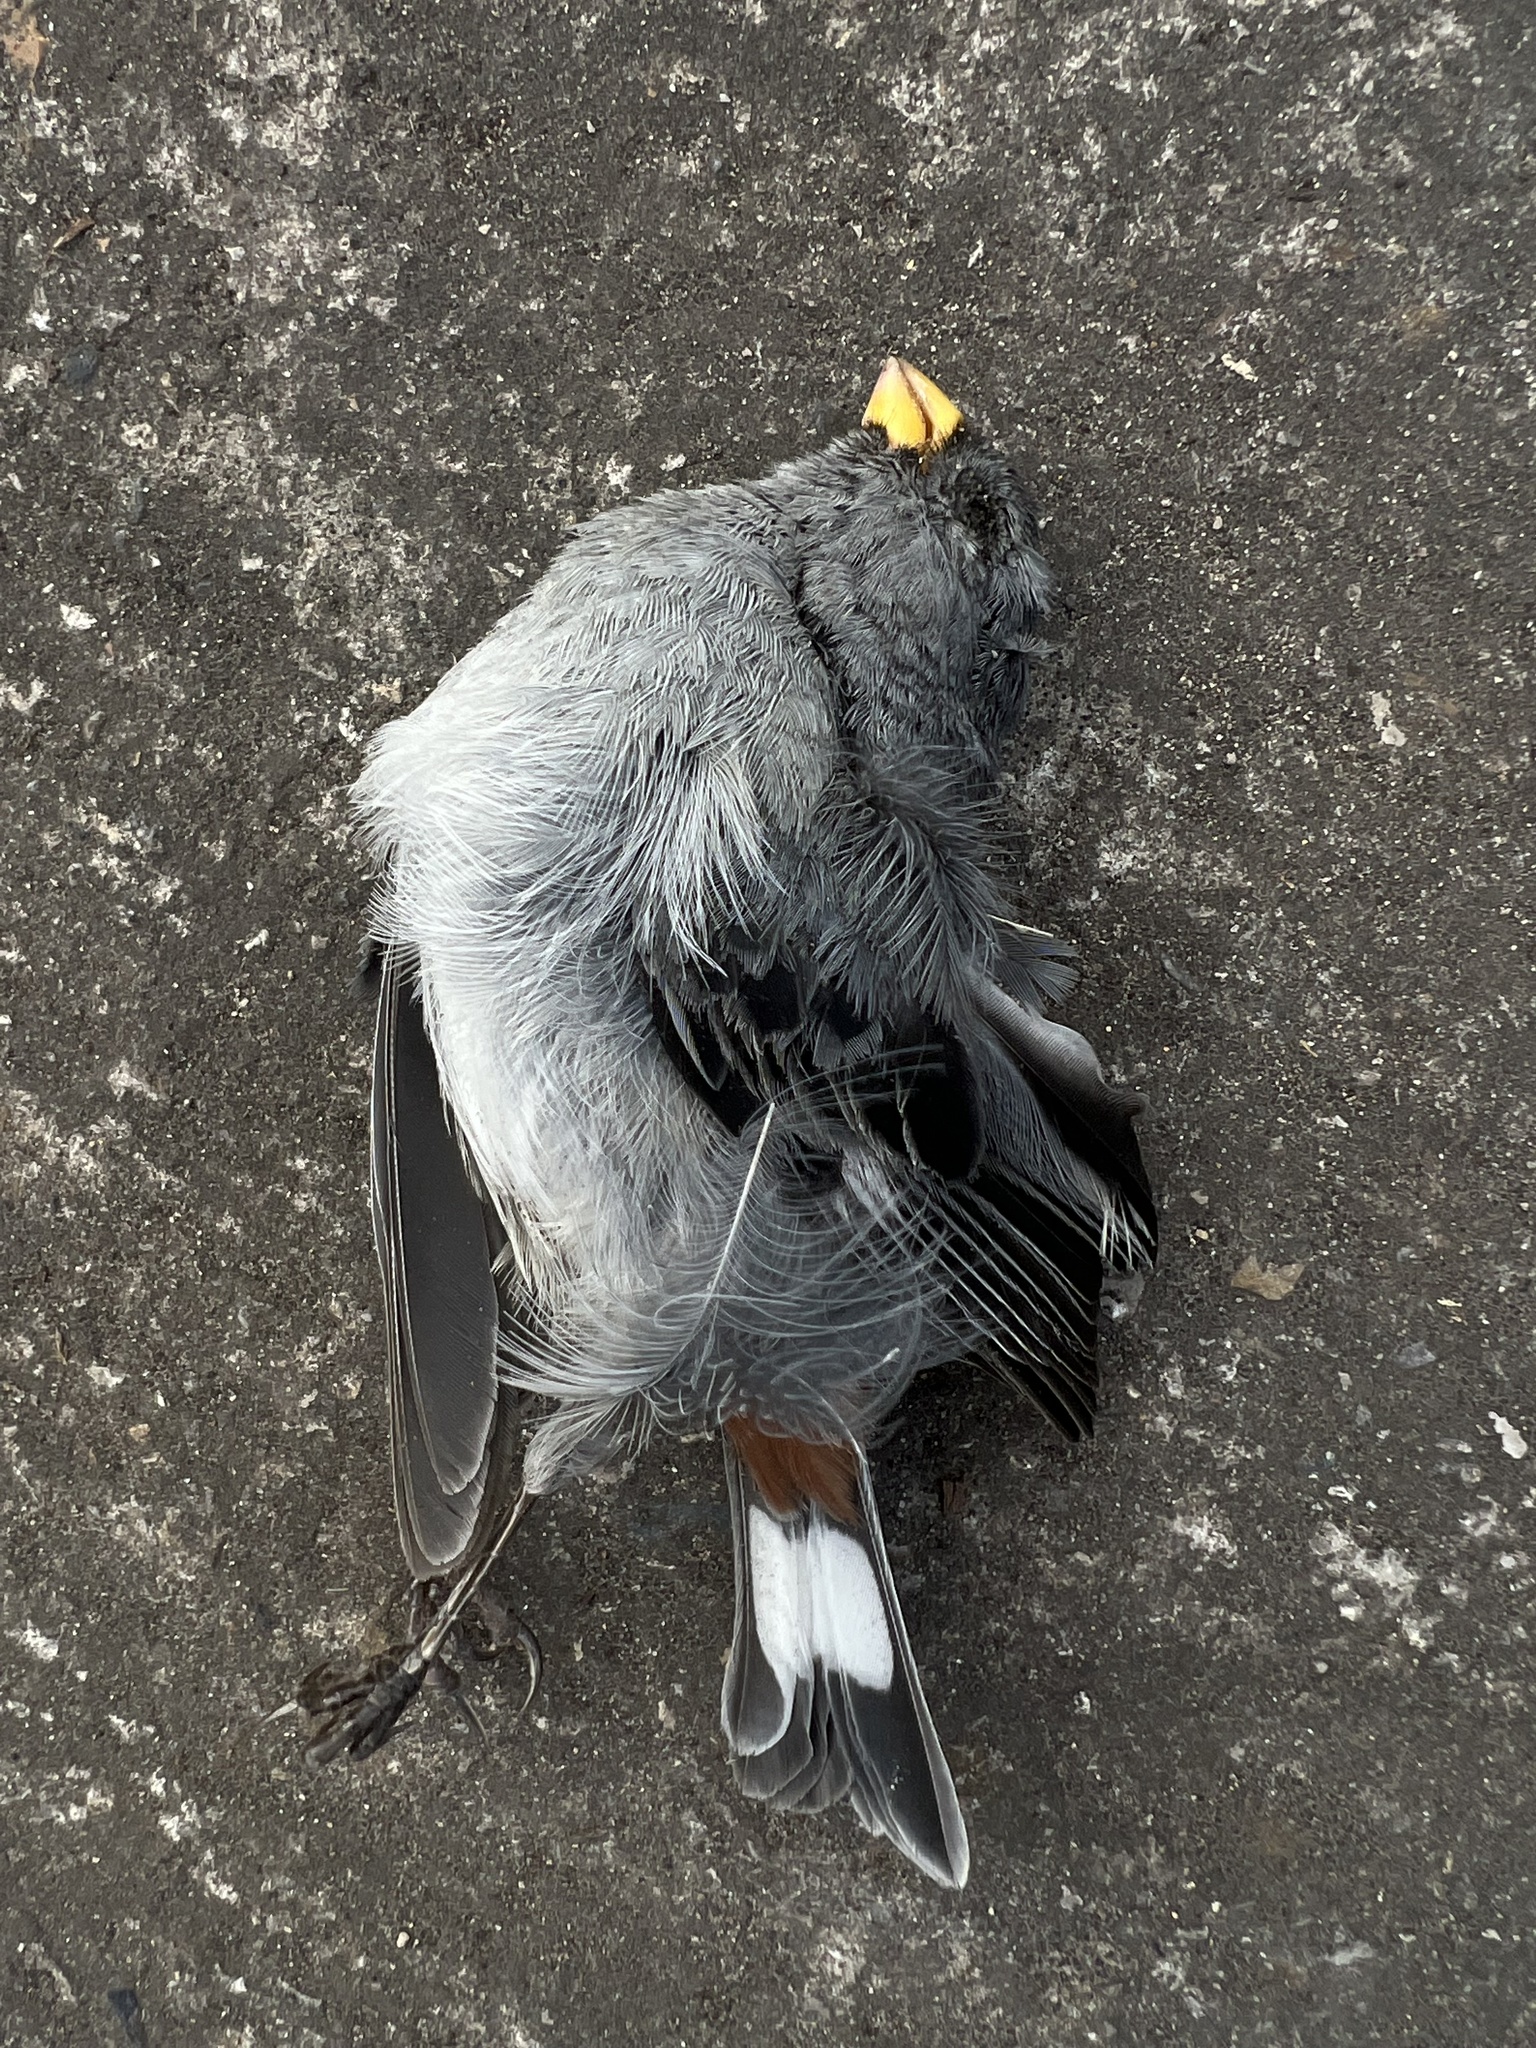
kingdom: Animalia
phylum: Chordata
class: Aves
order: Passeriformes
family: Thraupidae
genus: Catamenia
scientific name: Catamenia analis
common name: Band-tailed seedeater
